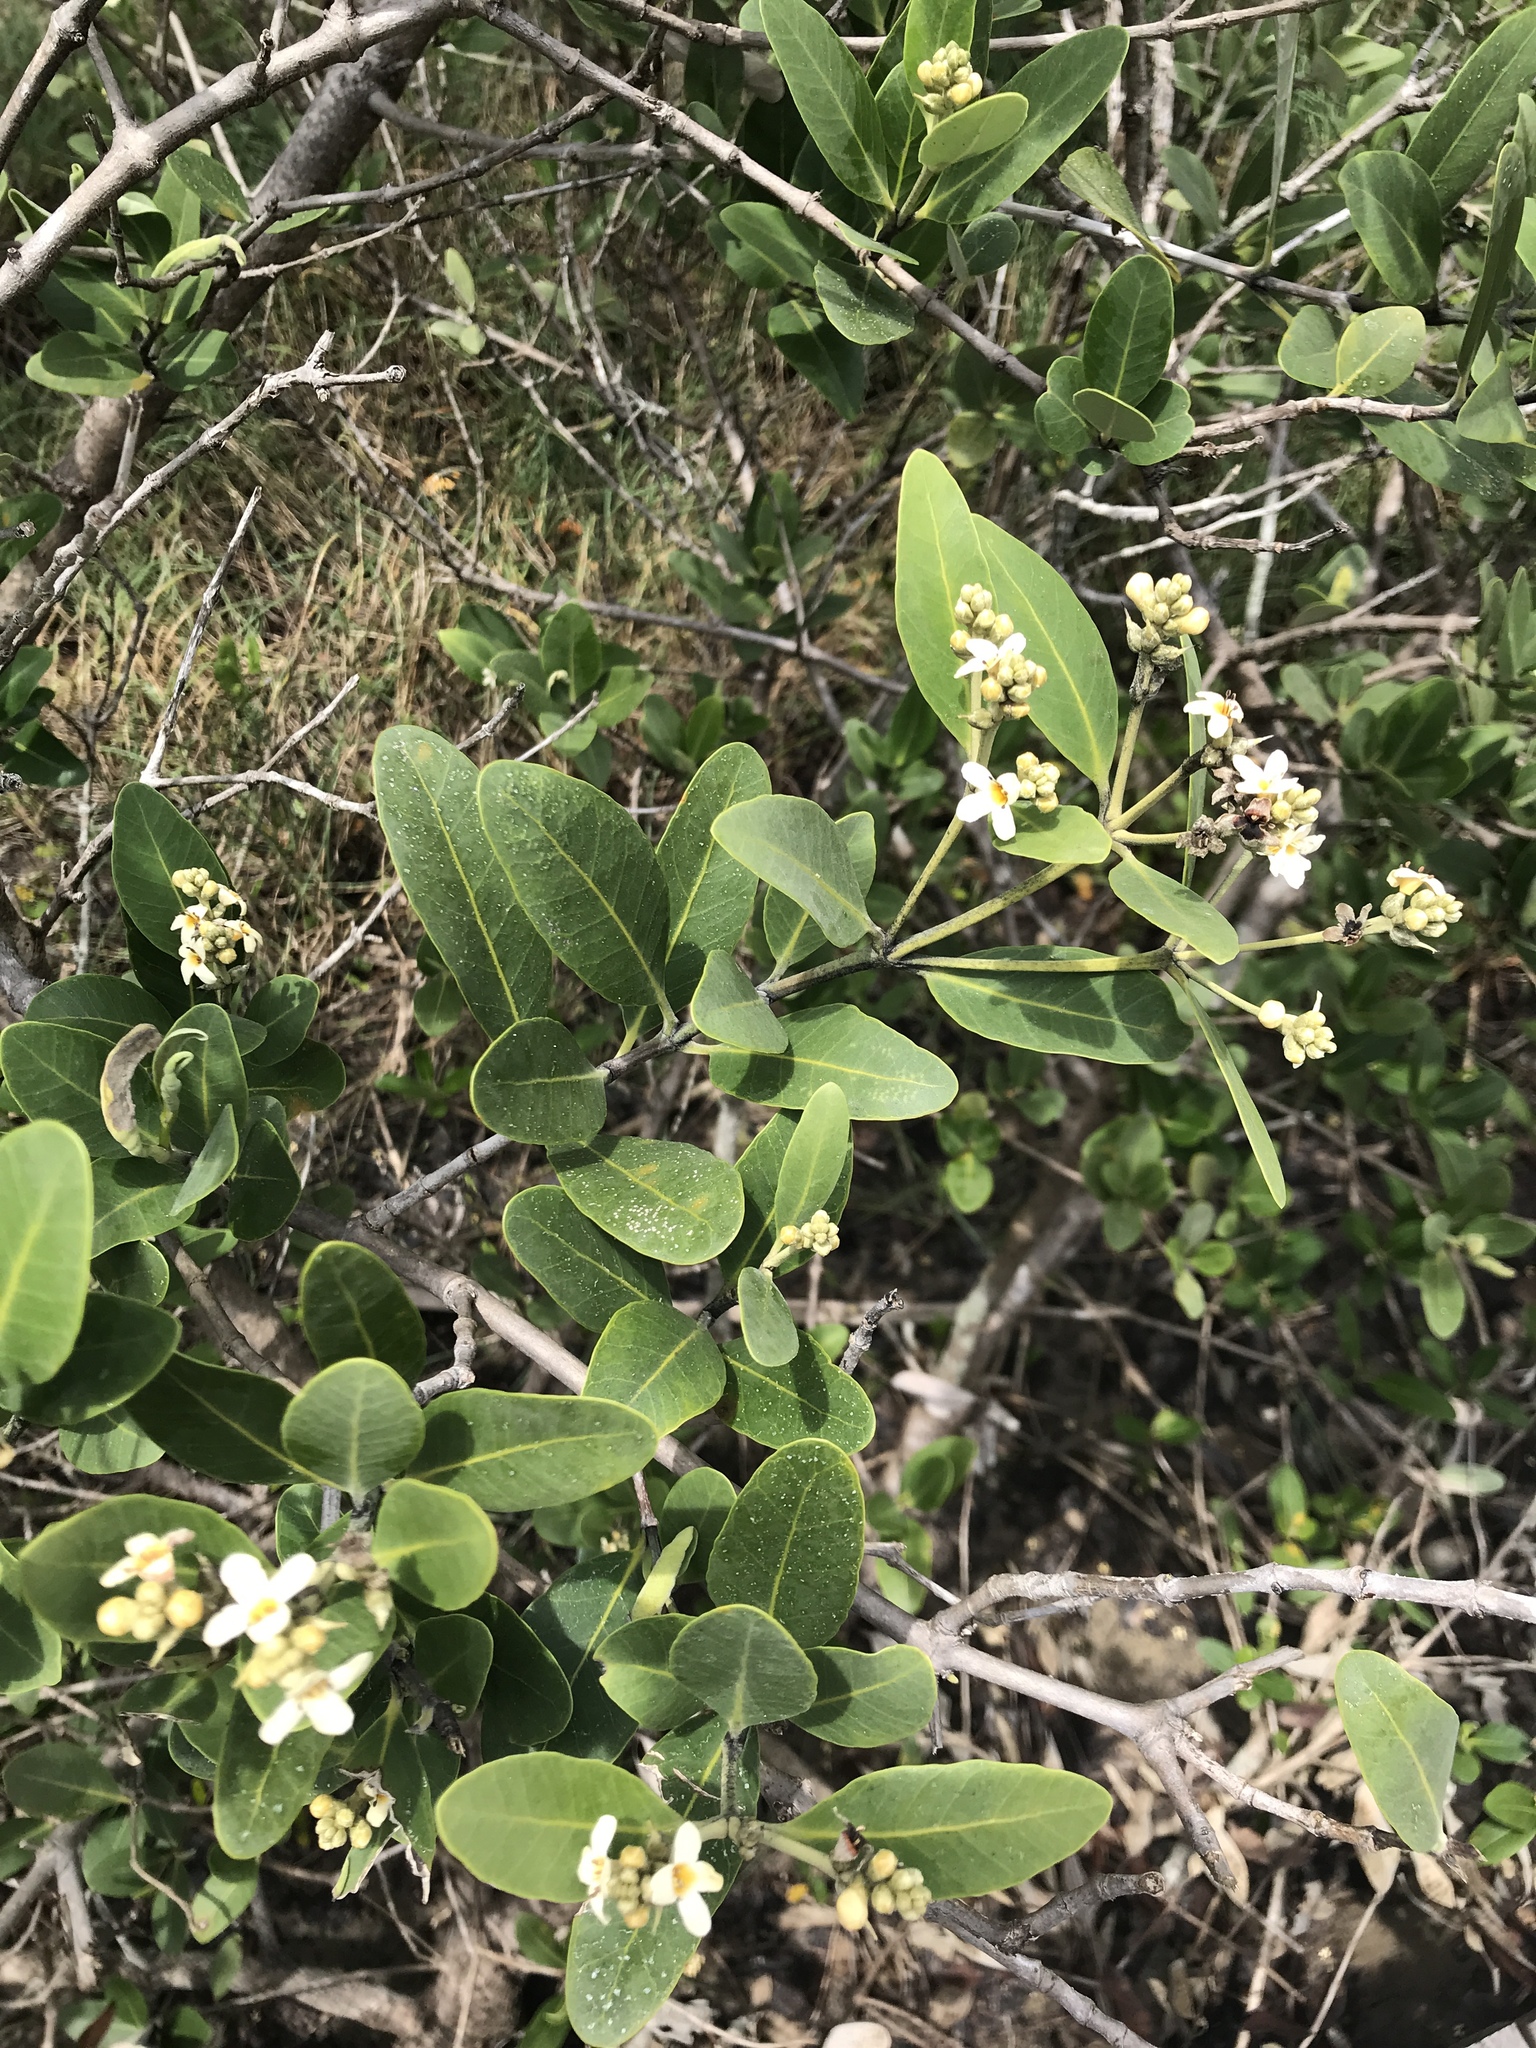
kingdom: Plantae
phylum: Tracheophyta
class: Magnoliopsida
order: Lamiales
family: Acanthaceae
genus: Avicennia
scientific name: Avicennia germinans
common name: Black mangrove
